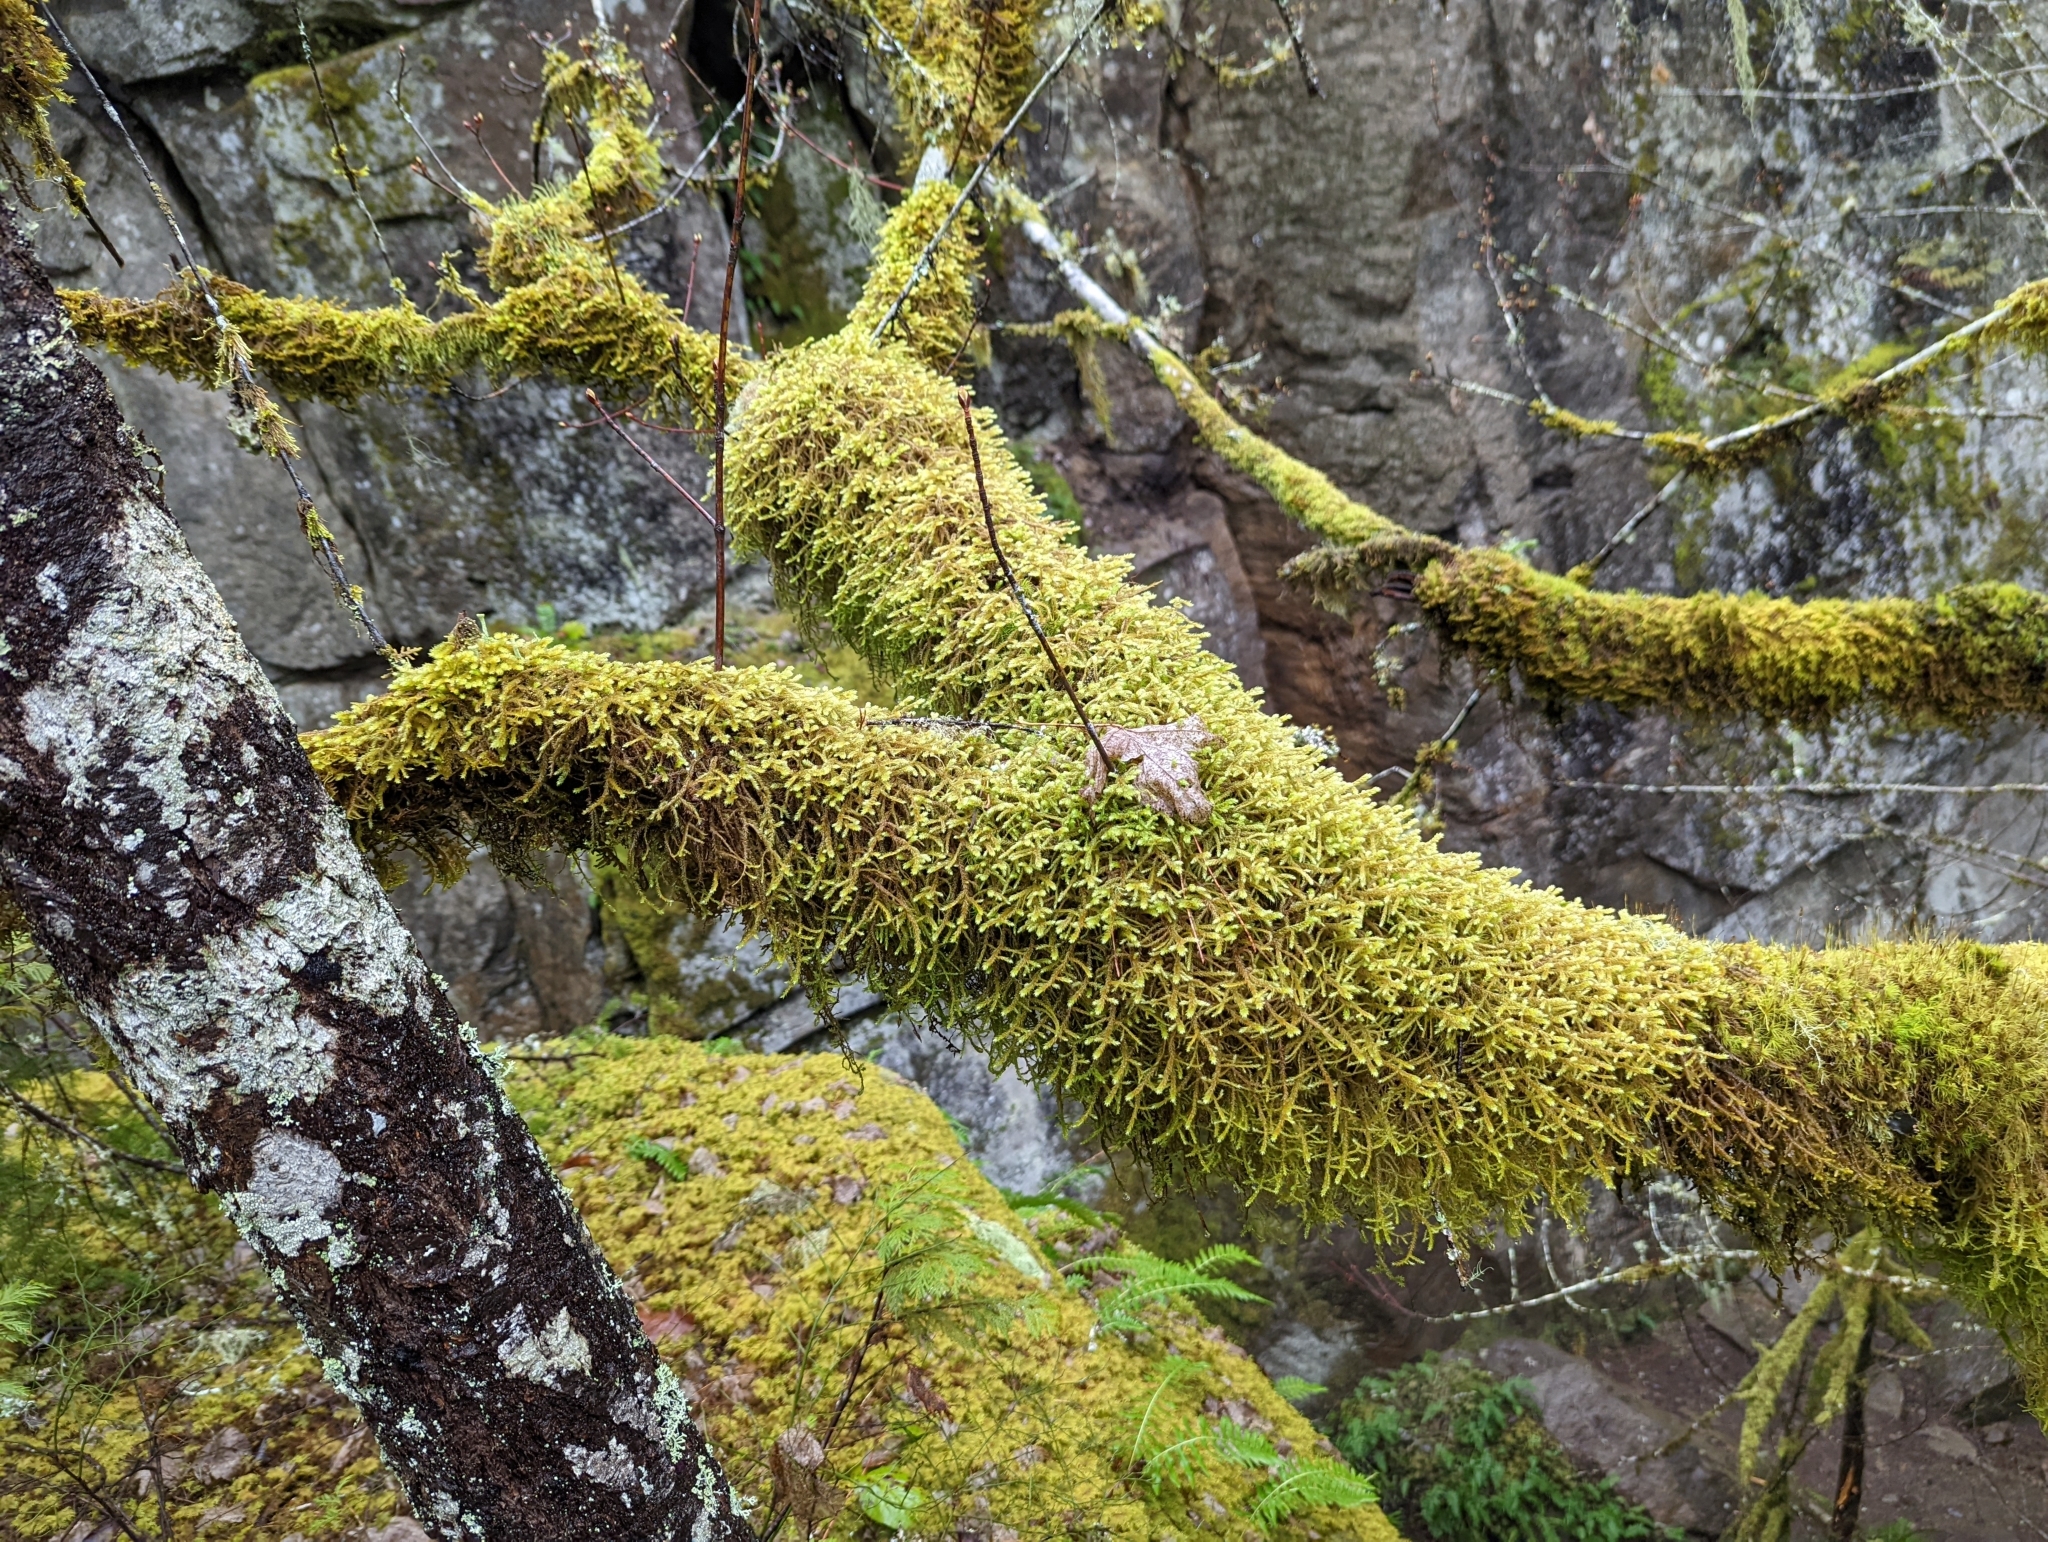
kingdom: Plantae
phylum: Bryophyta
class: Bryopsida
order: Hypnales
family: Antitrichiaceae
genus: Antitrichia
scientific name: Antitrichia curtipendula
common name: Pendulous wing-moss
